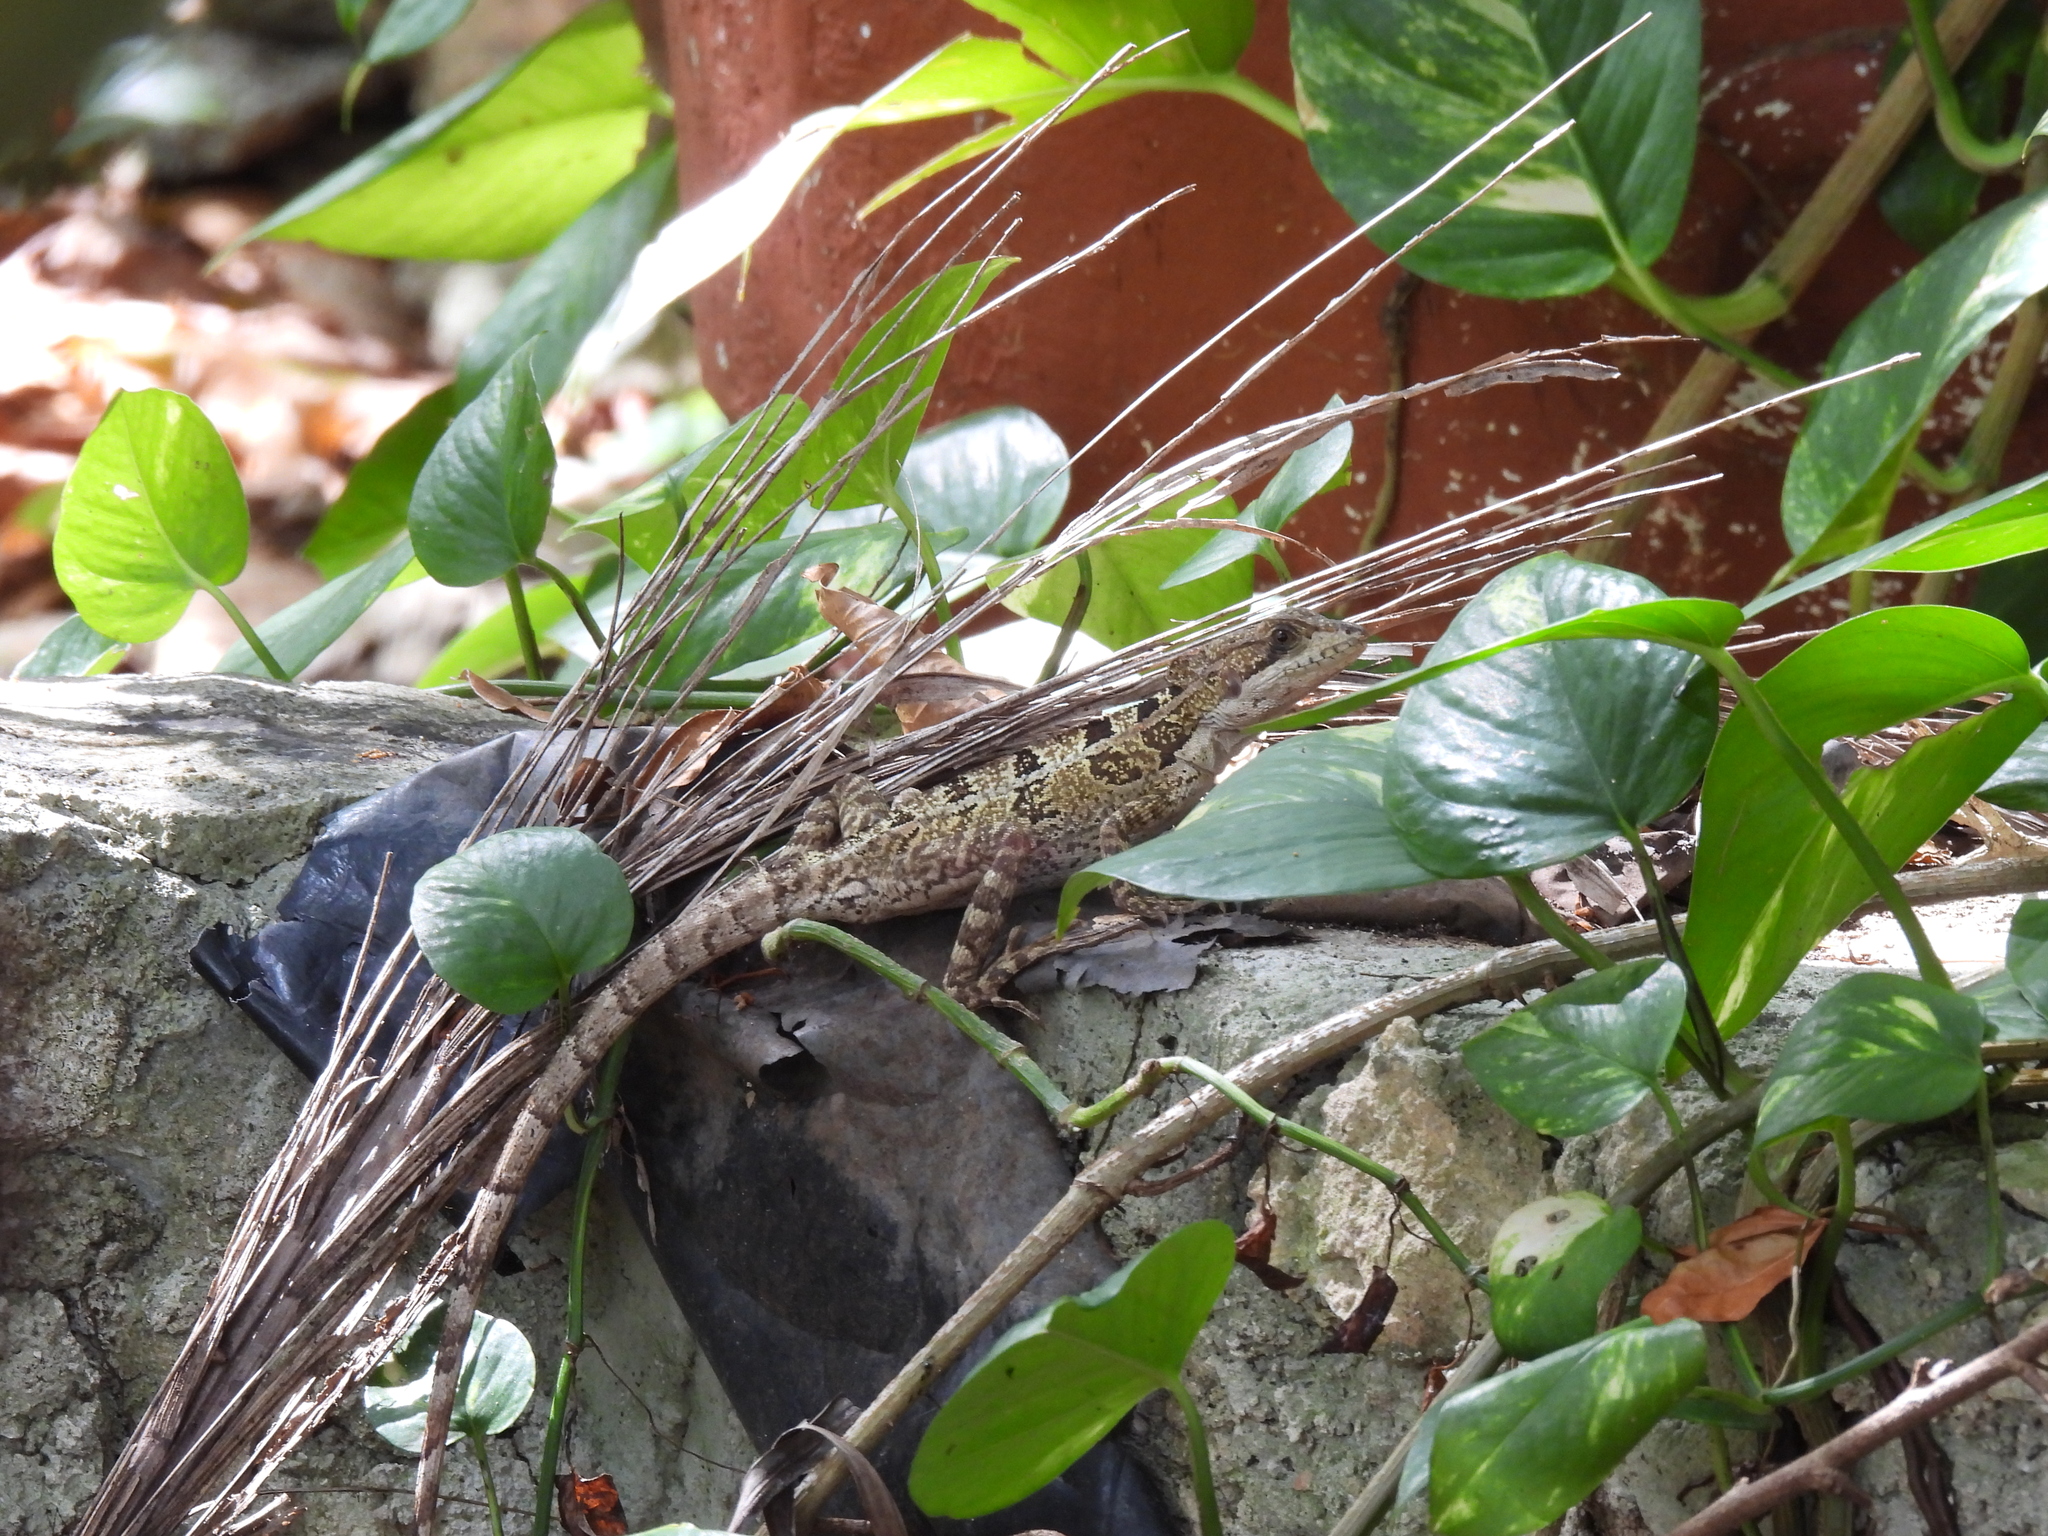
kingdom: Animalia
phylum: Chordata
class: Squamata
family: Corytophanidae
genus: Basiliscus
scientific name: Basiliscus vittatus
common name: Brown basilisk
